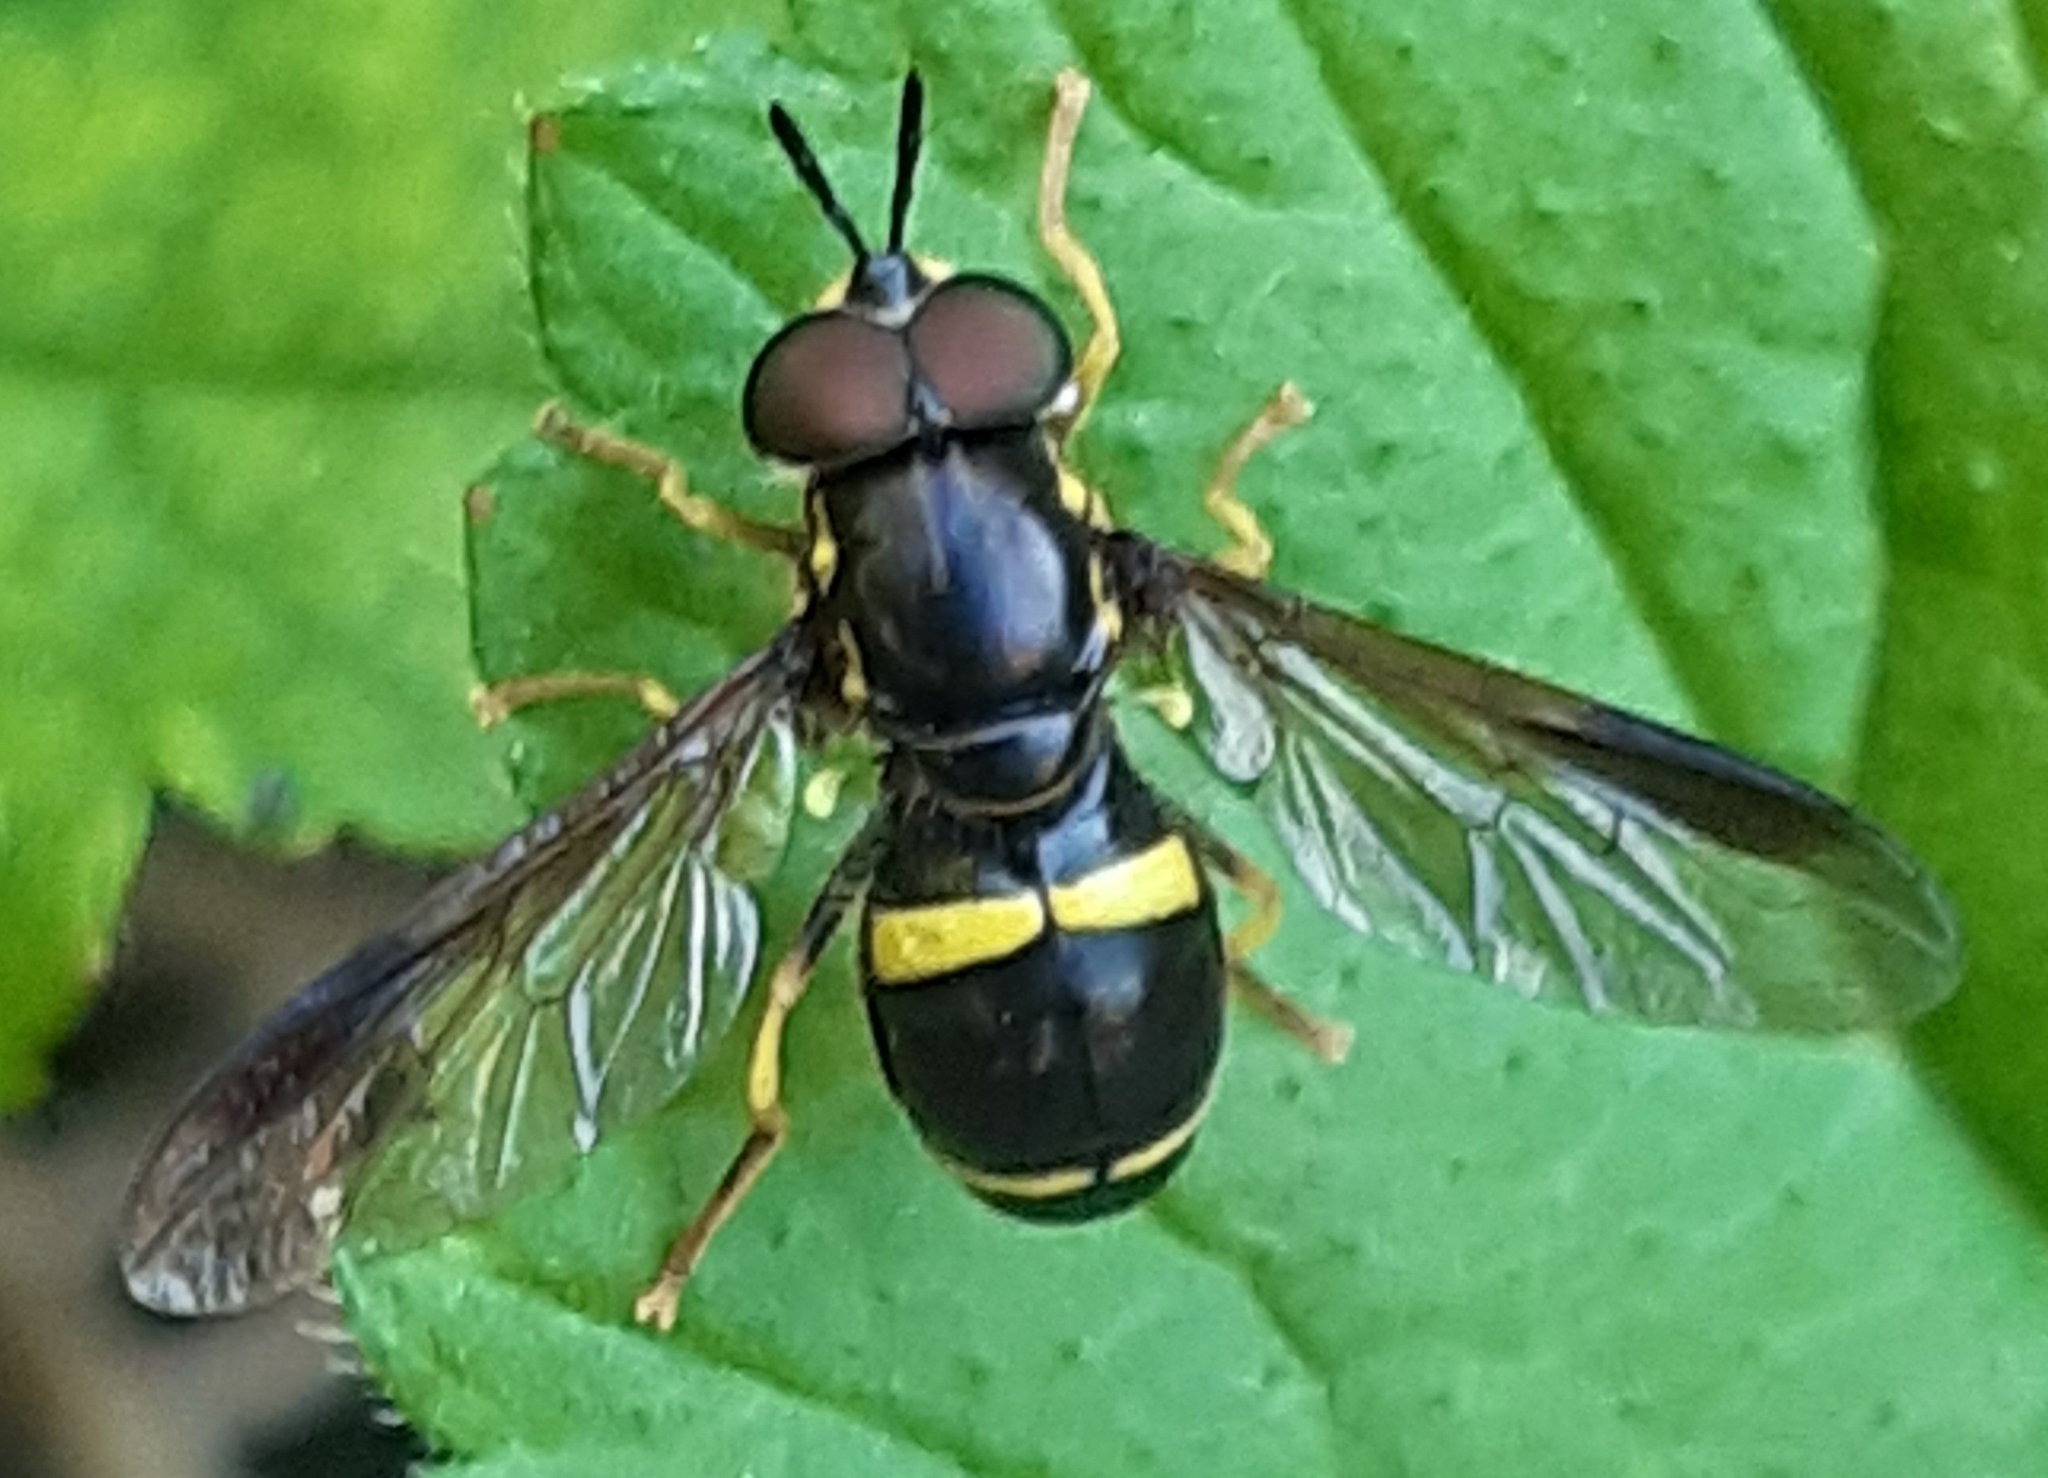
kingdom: Animalia
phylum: Arthropoda
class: Insecta
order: Diptera
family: Syrphidae
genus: Chrysotoxum
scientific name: Chrysotoxum bicincta
